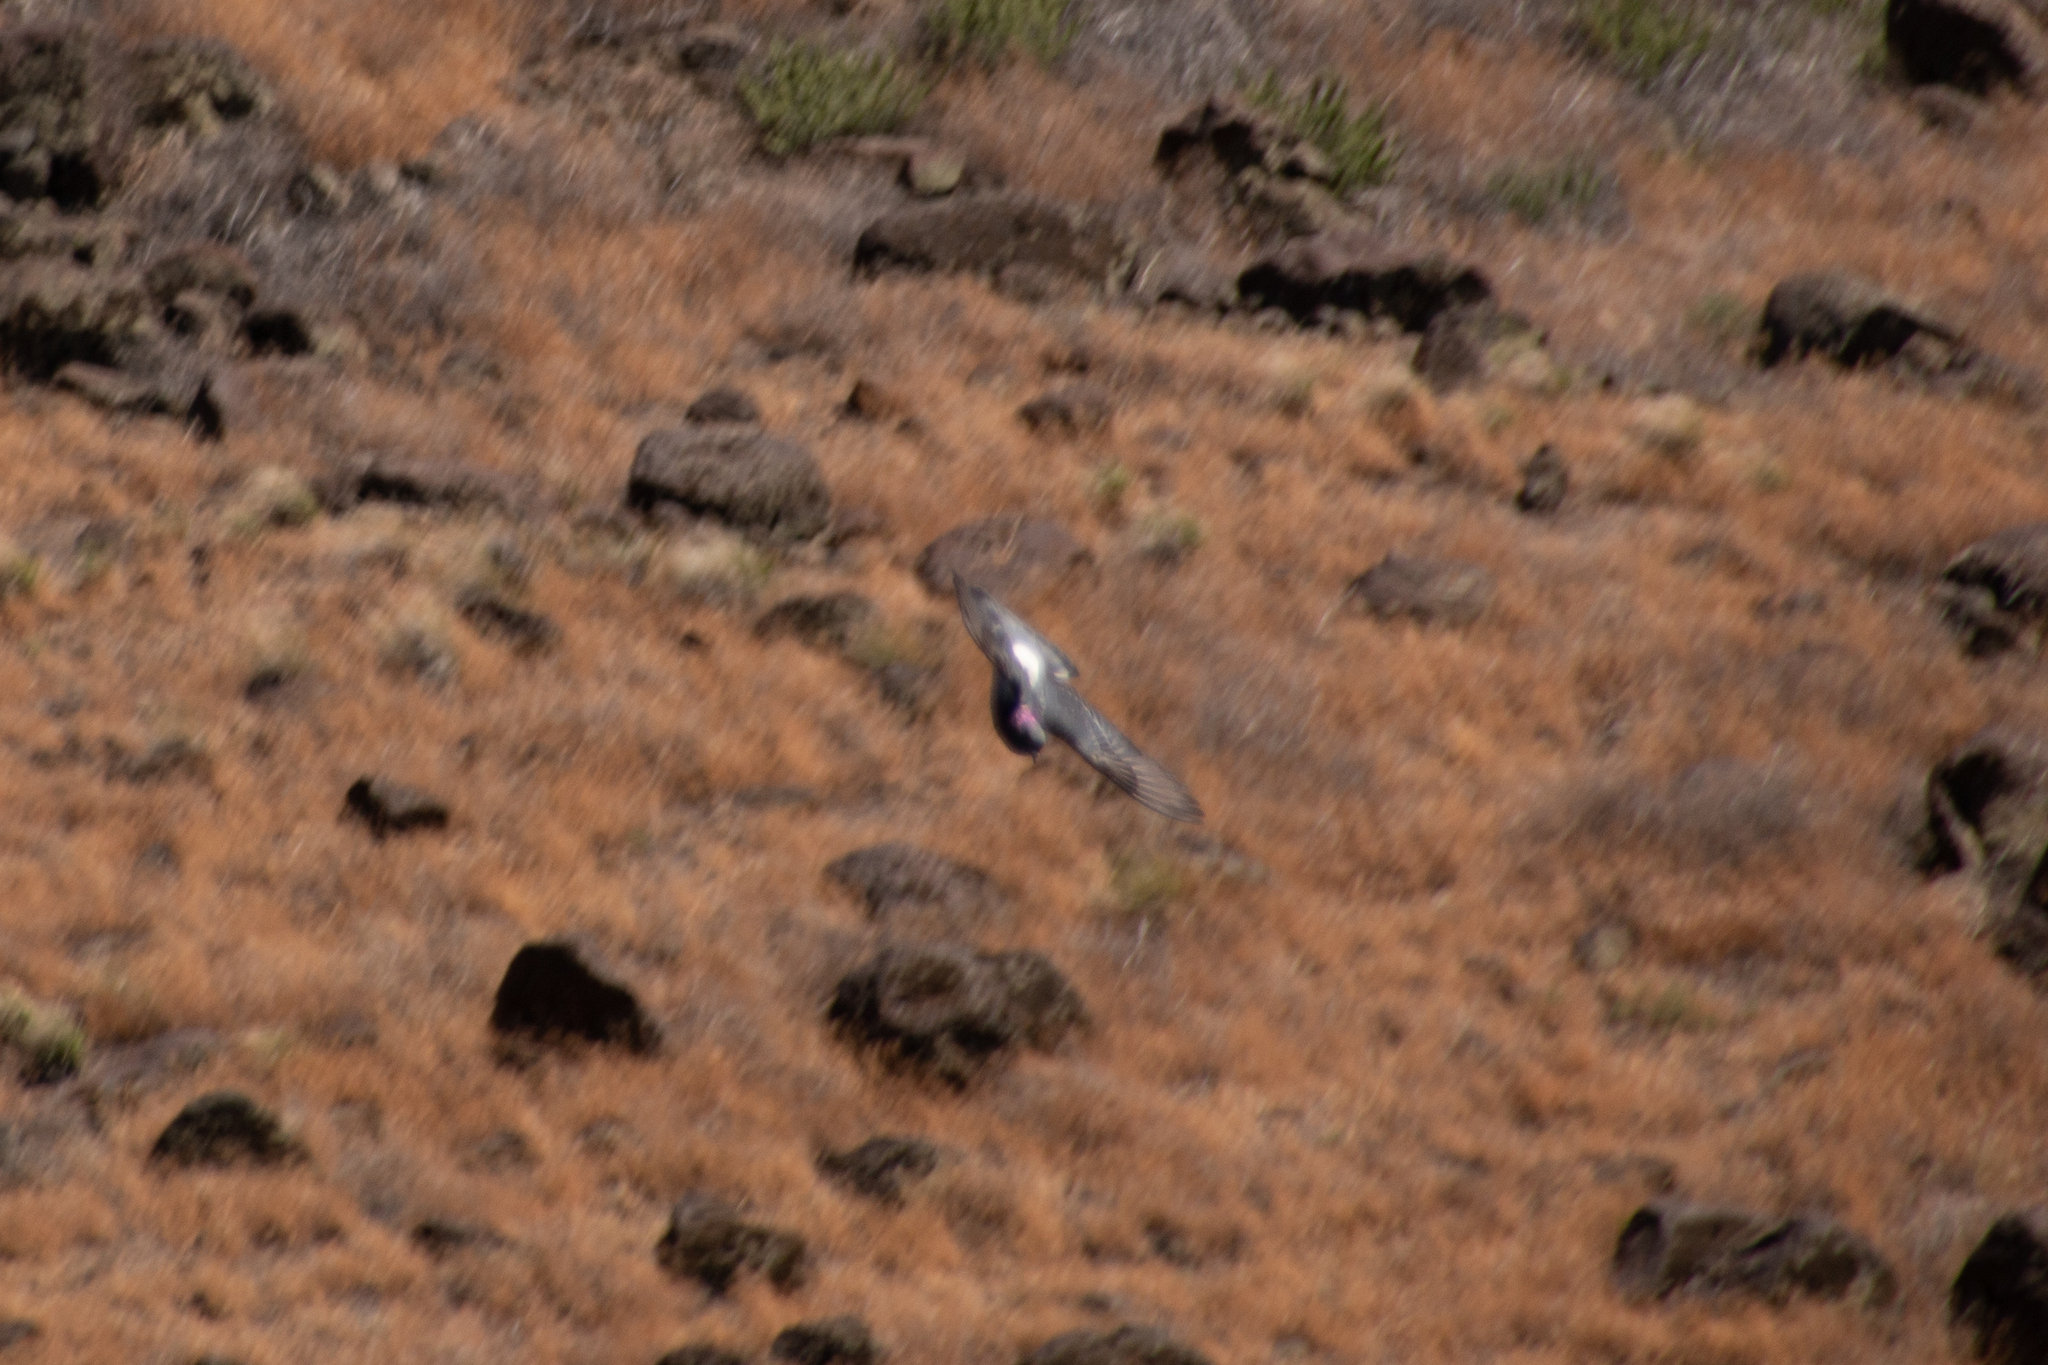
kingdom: Animalia
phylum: Chordata
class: Aves
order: Columbiformes
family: Columbidae
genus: Columba
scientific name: Columba livia
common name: Rock pigeon
